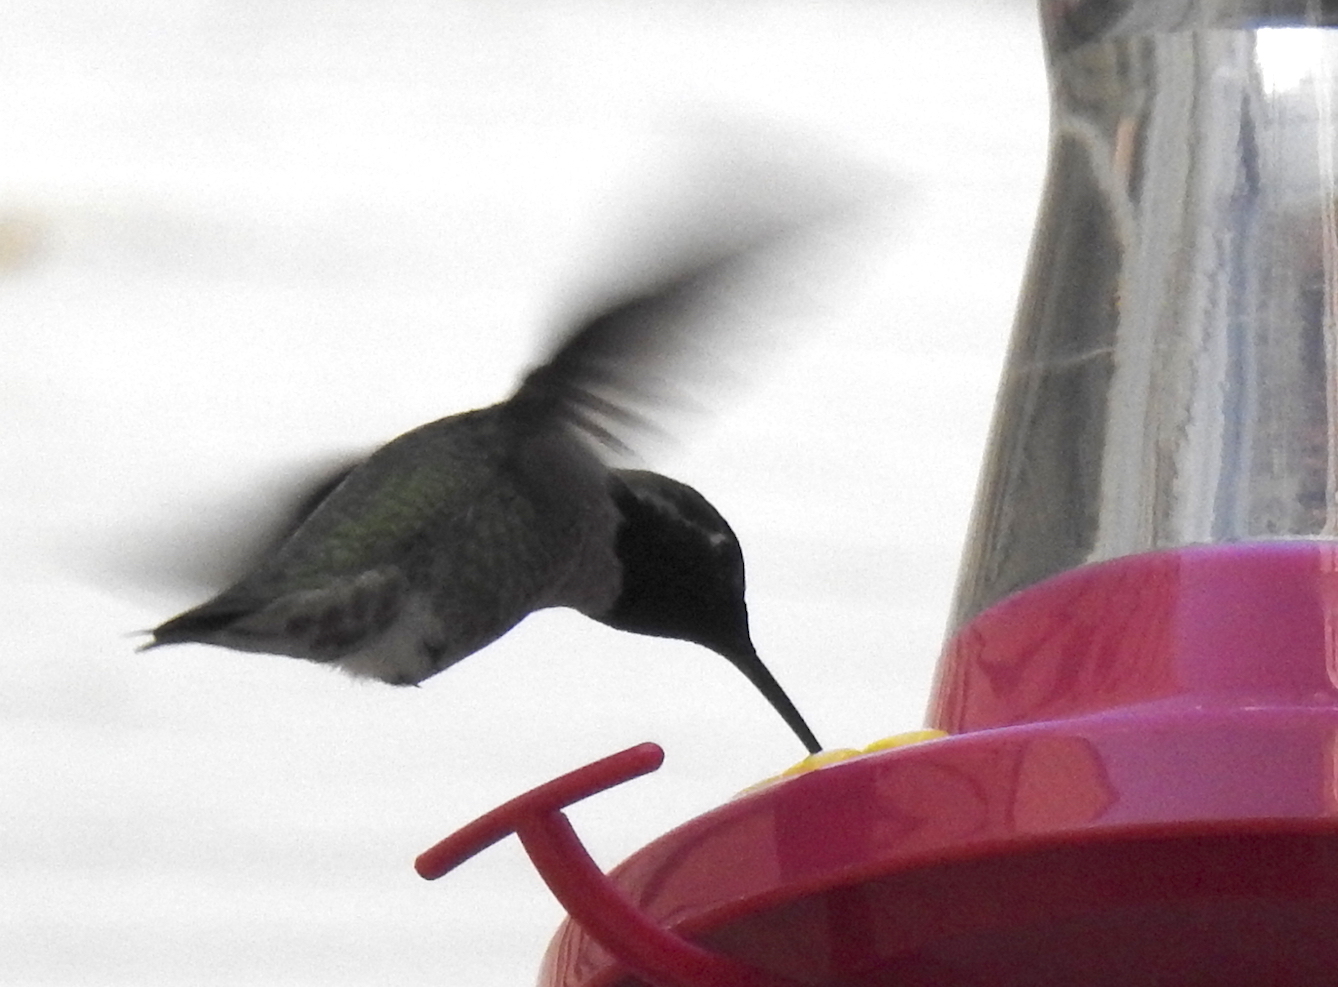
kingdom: Animalia
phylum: Chordata
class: Aves
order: Apodiformes
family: Trochilidae
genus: Calypte
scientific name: Calypte anna
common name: Anna's hummingbird
